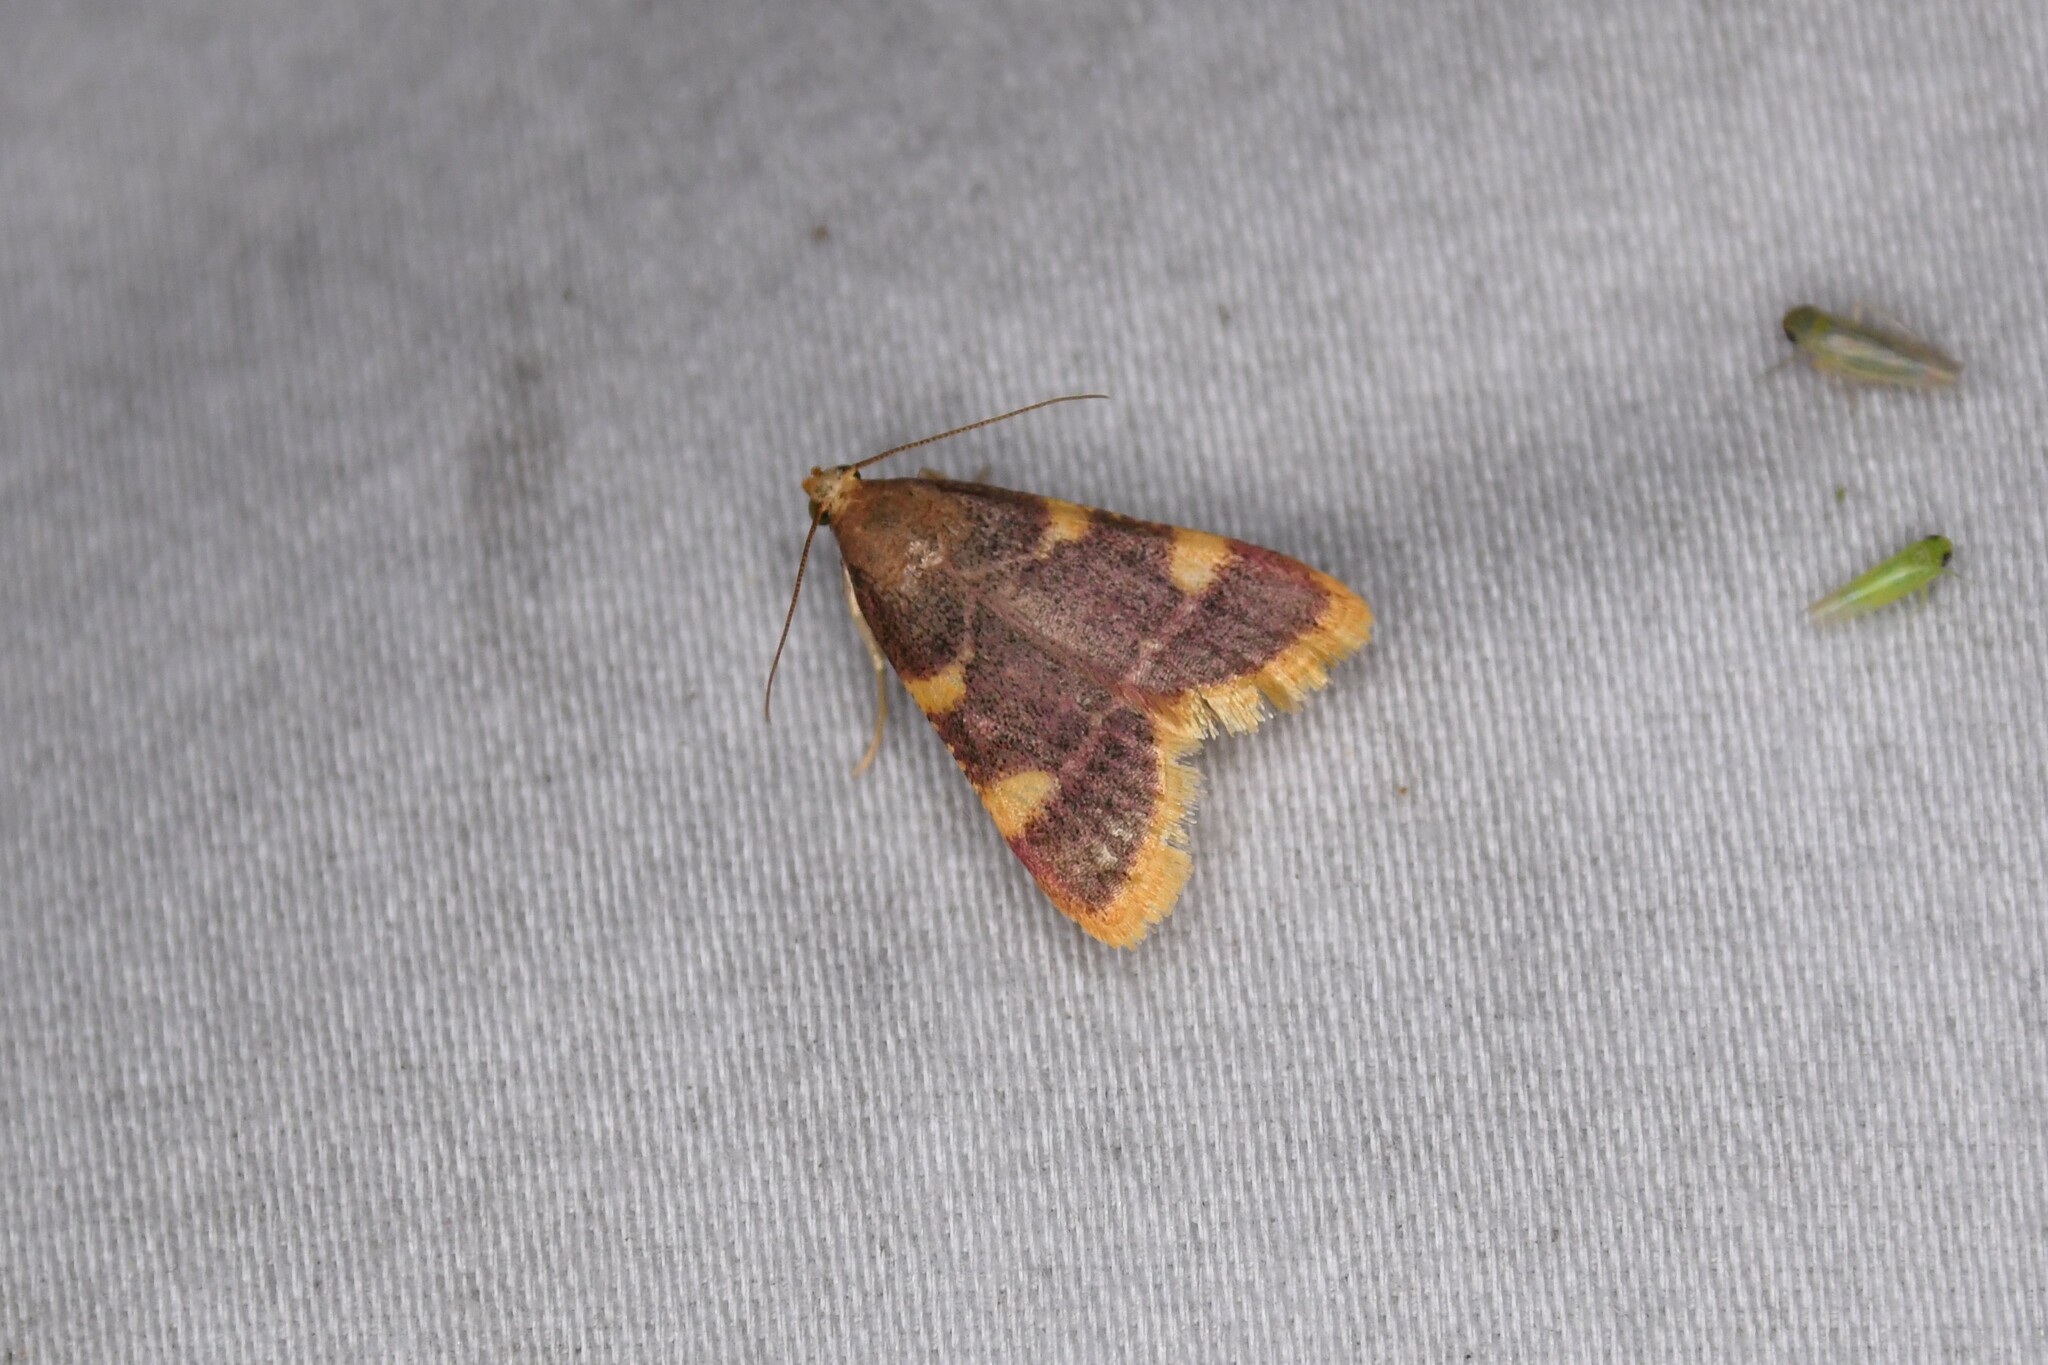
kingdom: Animalia
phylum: Arthropoda
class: Insecta
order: Lepidoptera
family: Pyralidae
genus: Hypsopygia
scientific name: Hypsopygia costalis
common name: Gold triangle
